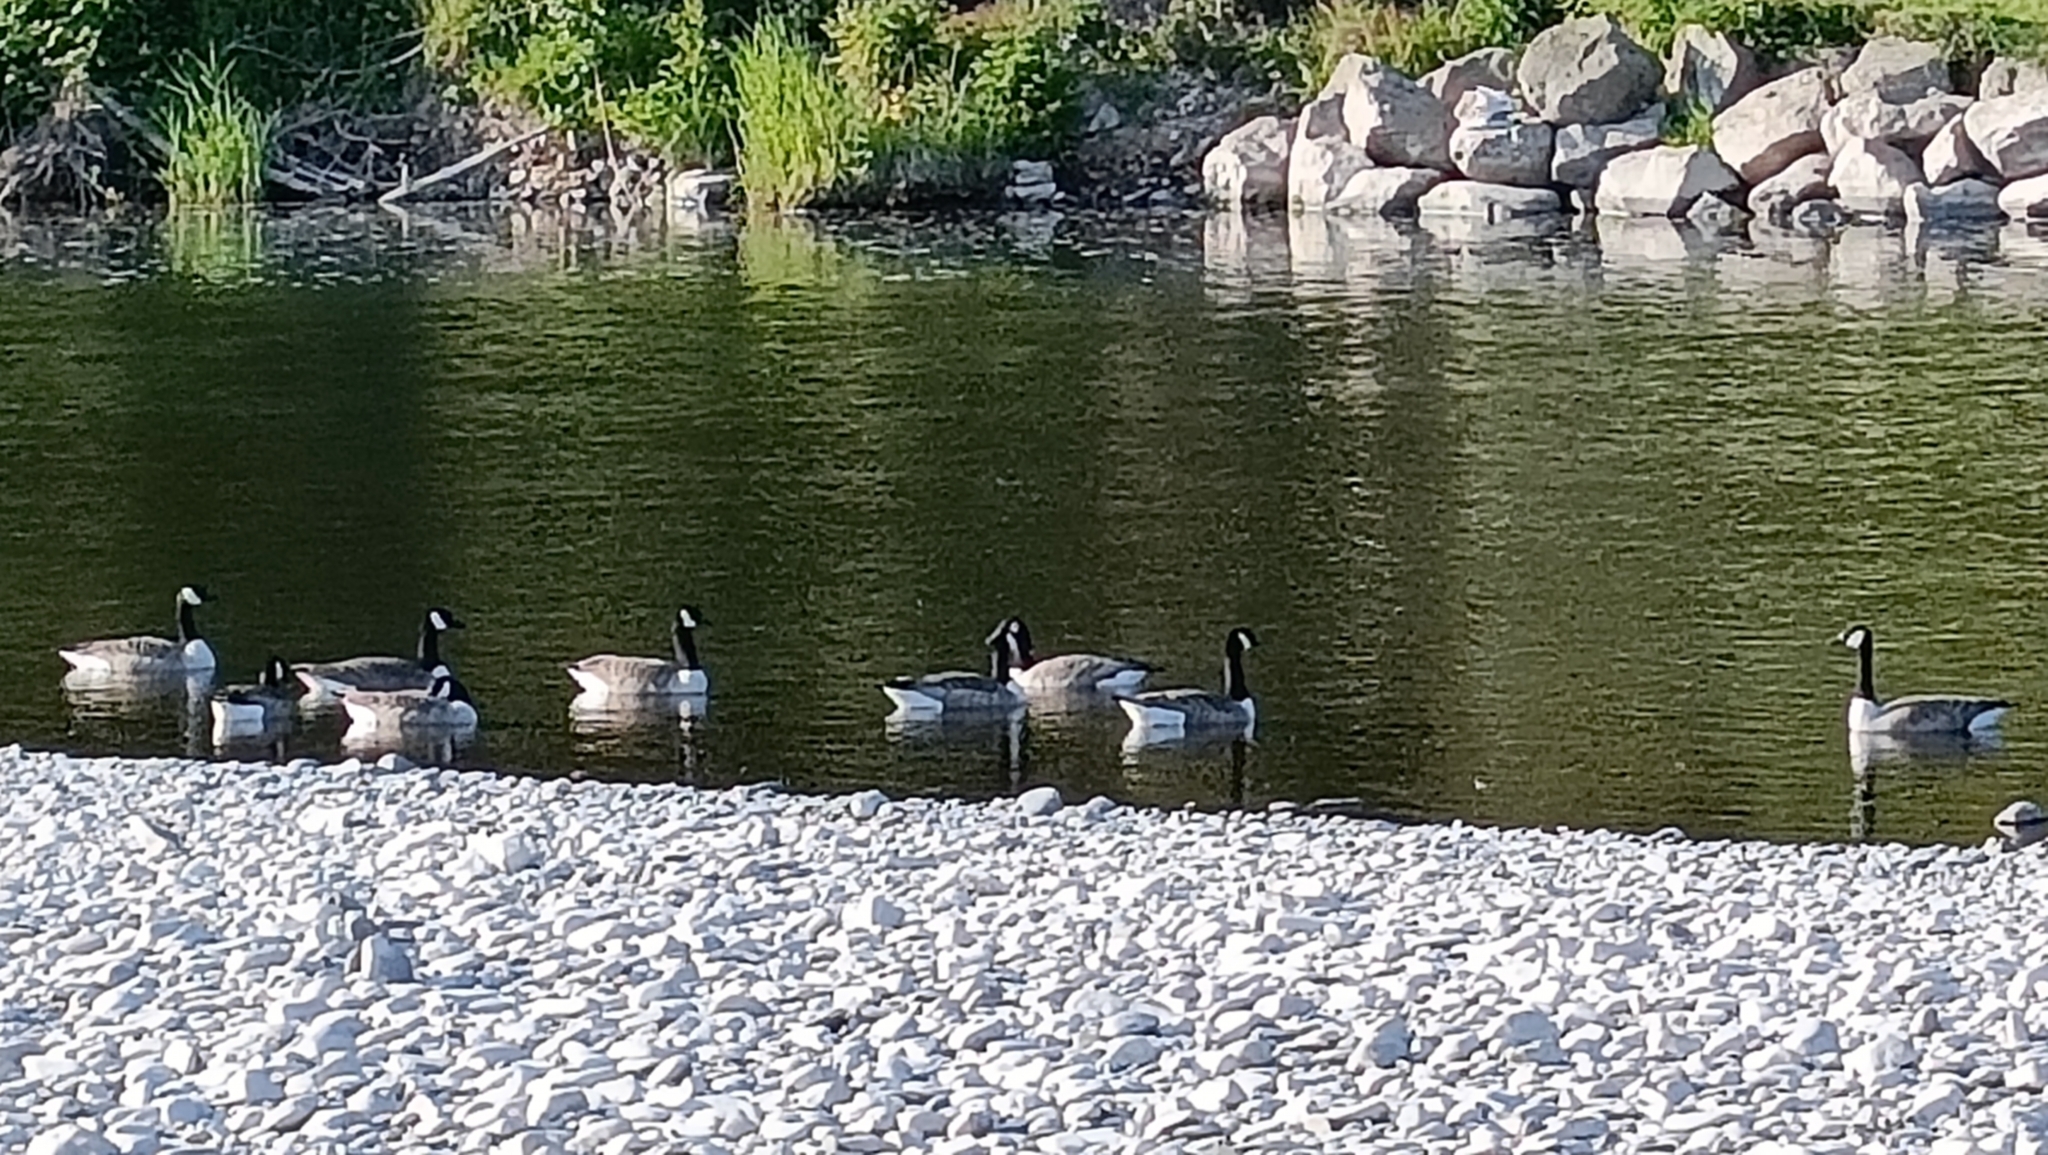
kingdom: Animalia
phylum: Chordata
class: Aves
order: Anseriformes
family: Anatidae
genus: Branta
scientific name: Branta canadensis
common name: Canada goose
